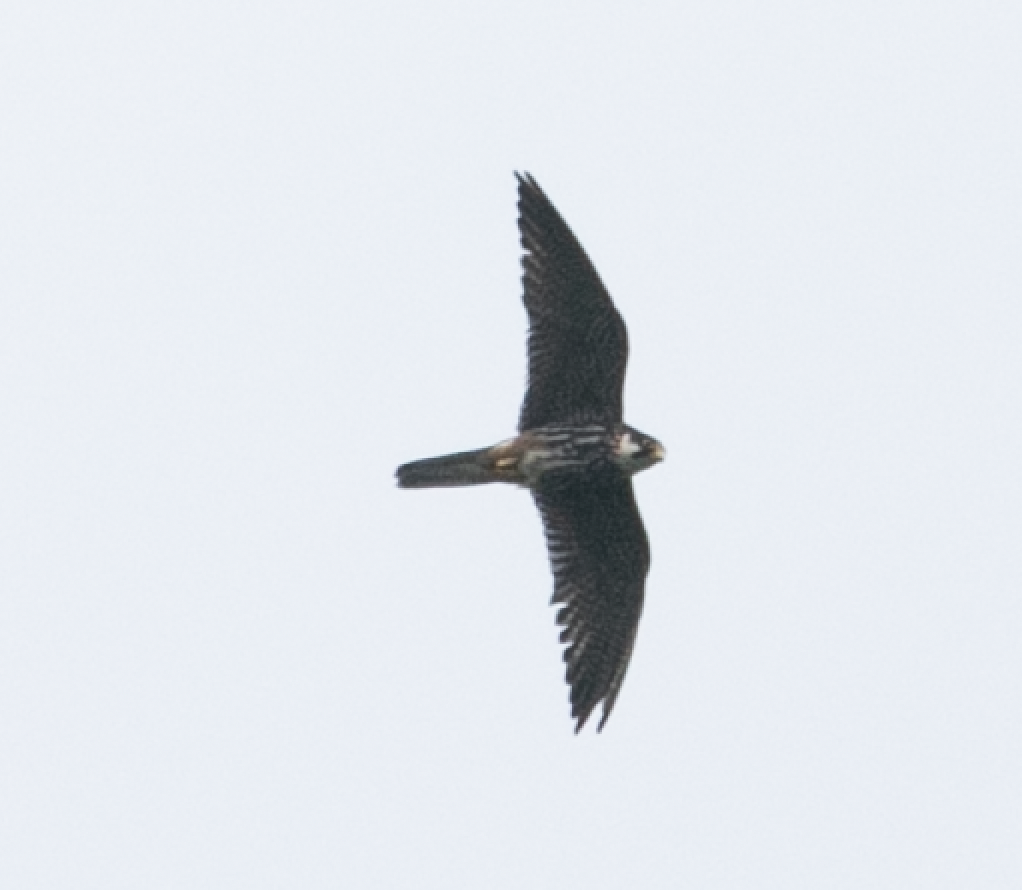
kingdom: Animalia
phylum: Chordata
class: Aves
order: Falconiformes
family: Falconidae
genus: Falco
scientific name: Falco subbuteo
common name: Eurasian hobby
